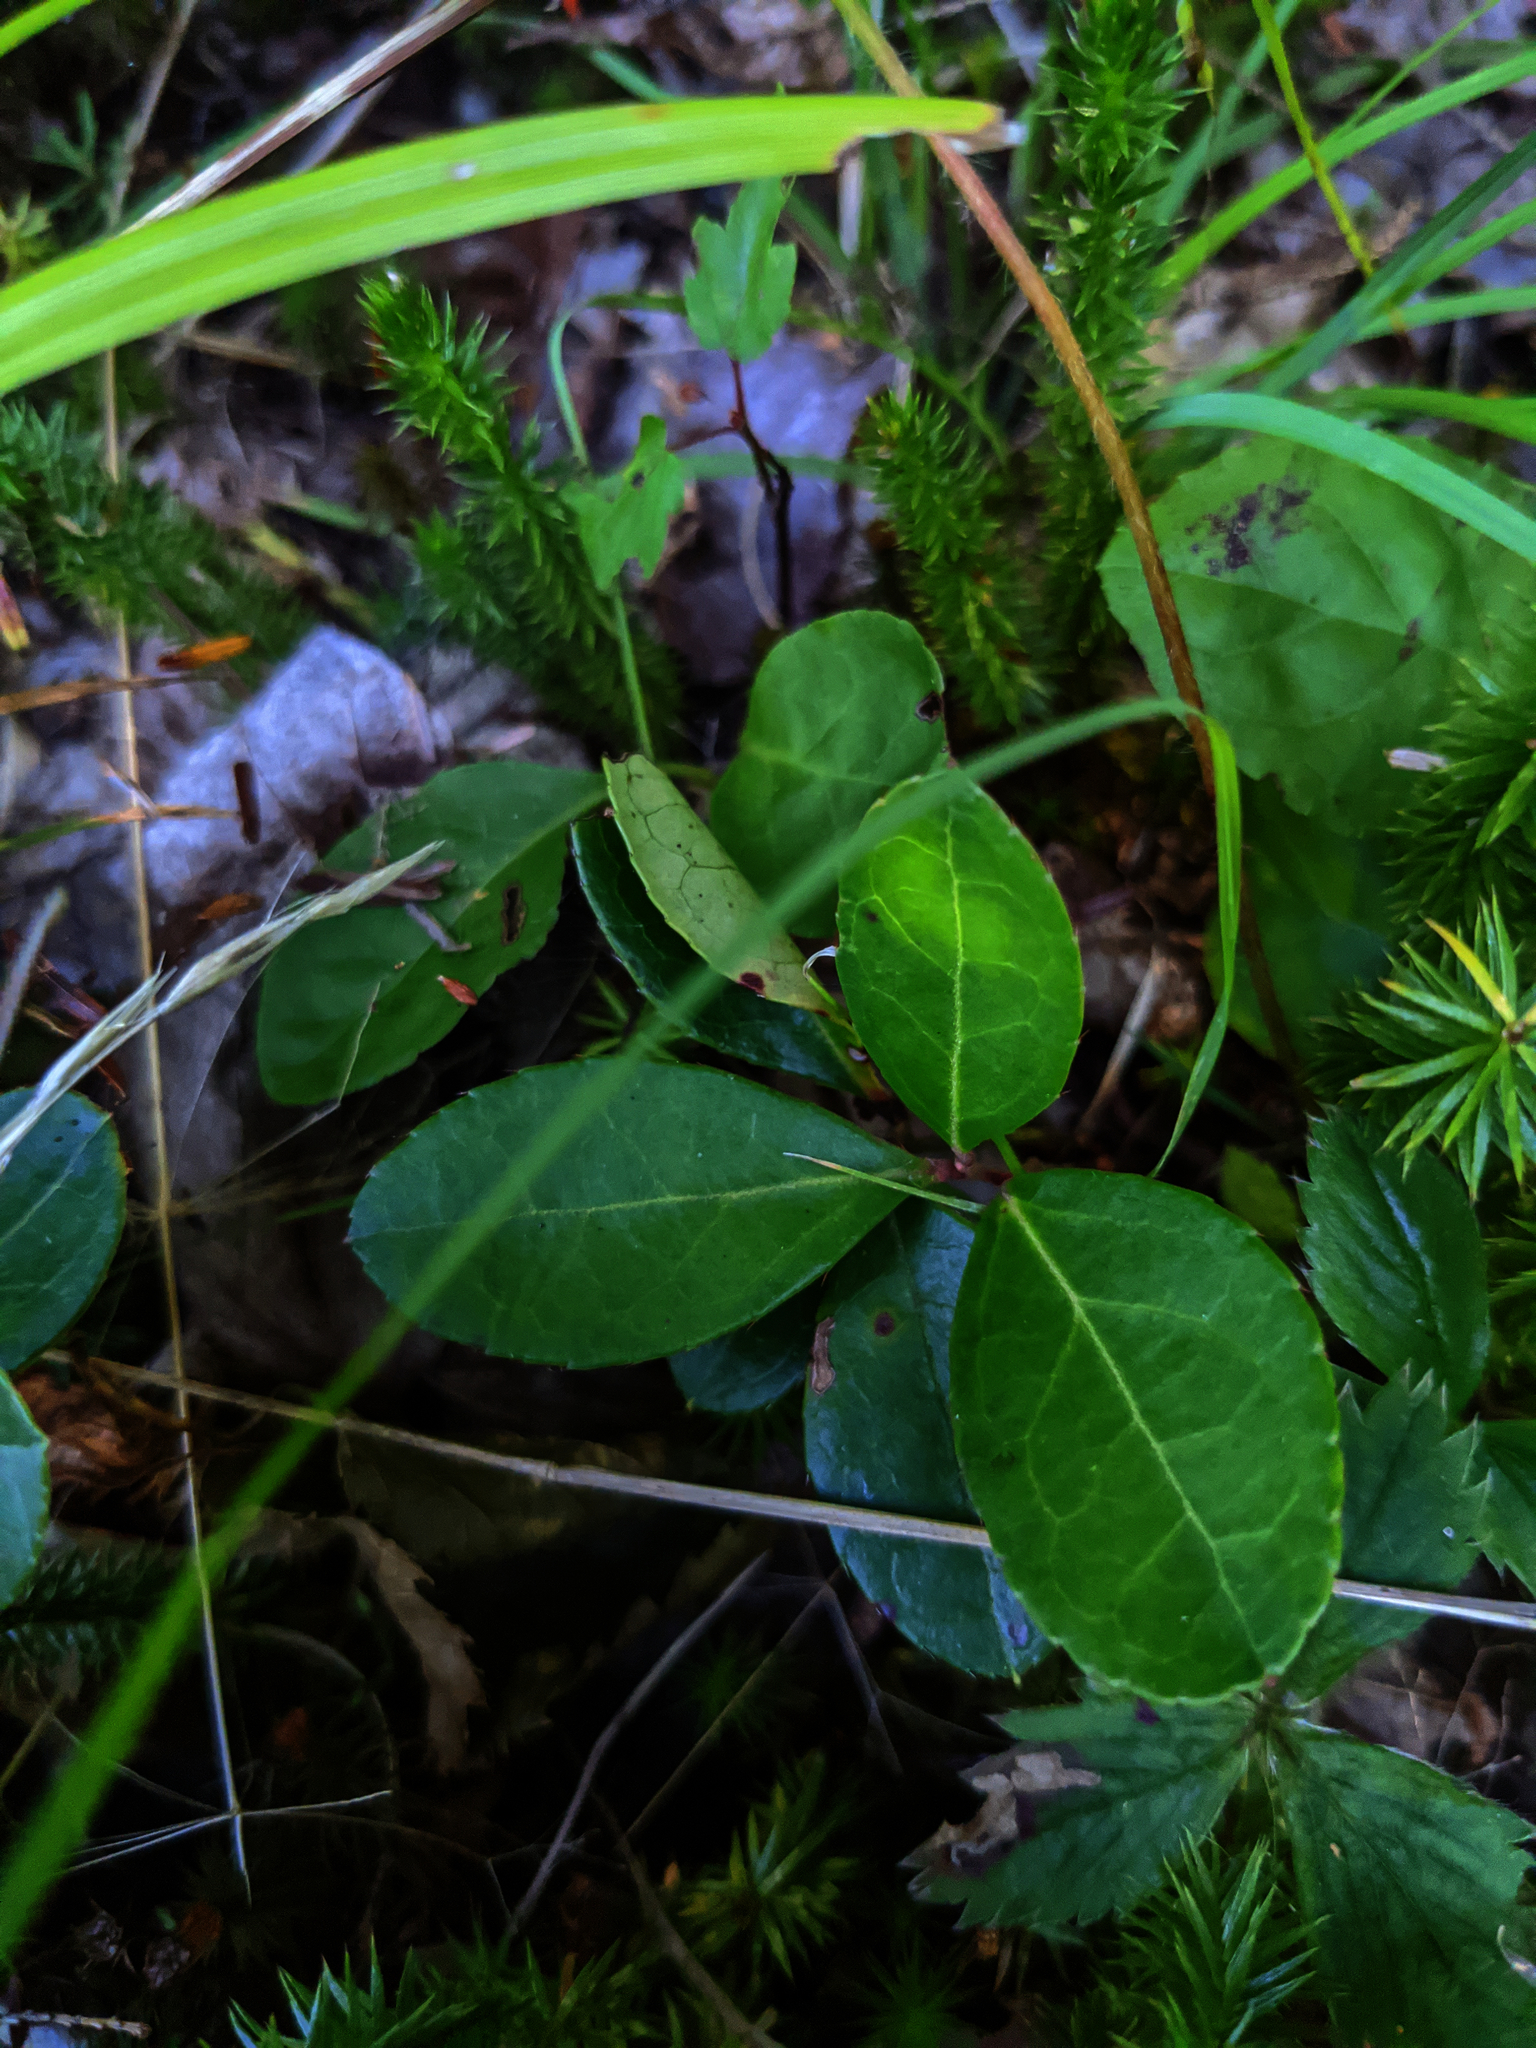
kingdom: Plantae
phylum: Tracheophyta
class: Magnoliopsida
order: Ericales
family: Ericaceae
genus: Gaultheria
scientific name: Gaultheria procumbens
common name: Checkerberry
